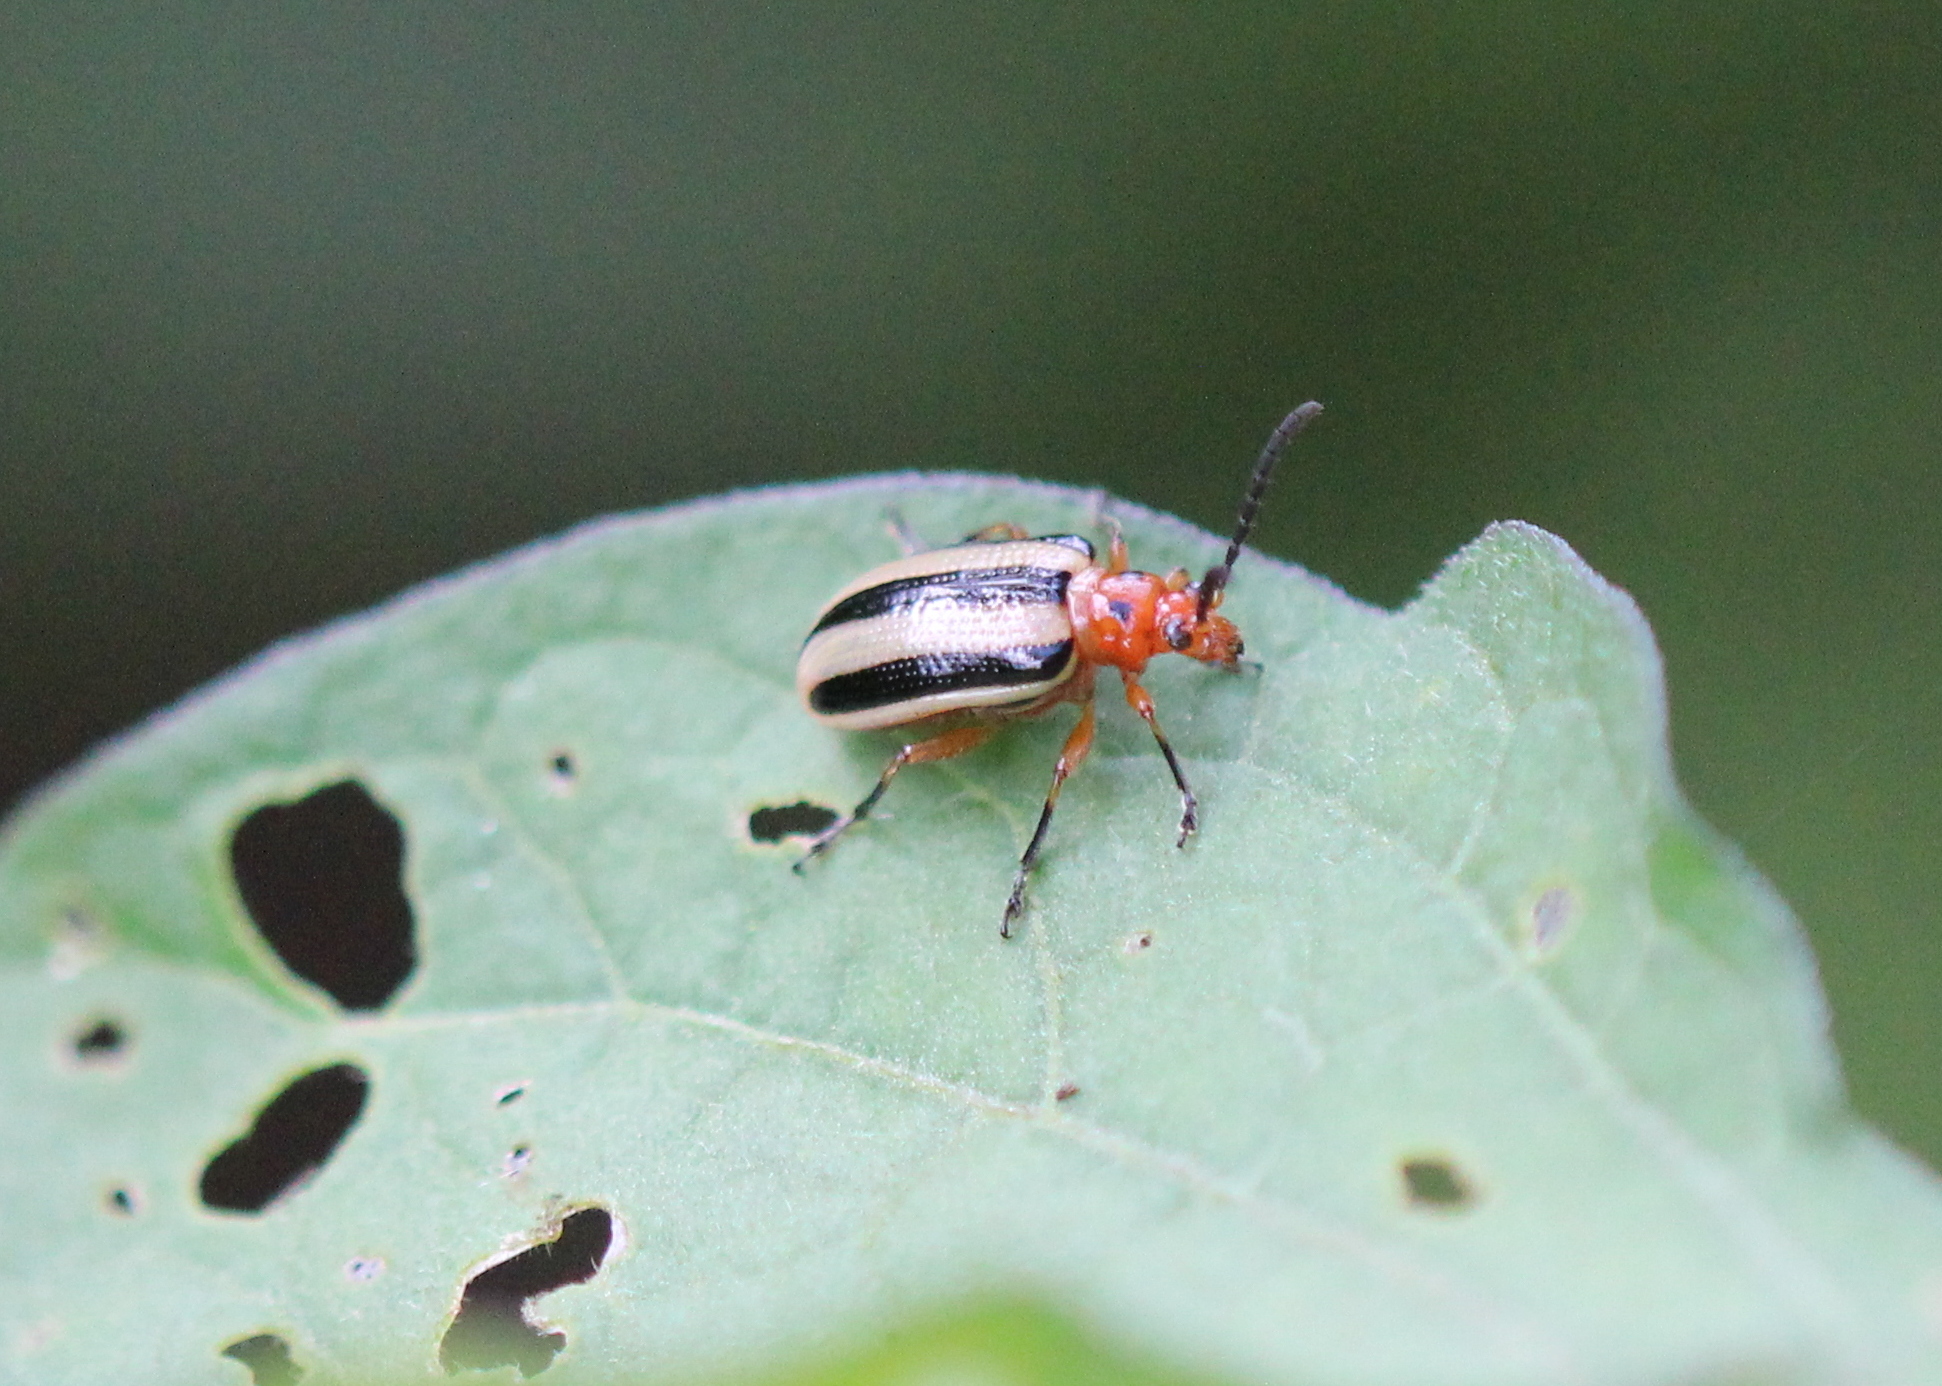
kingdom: Animalia
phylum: Arthropoda
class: Insecta
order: Coleoptera
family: Chrysomelidae
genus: Lema
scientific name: Lema daturaphila
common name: Leaf beetle
